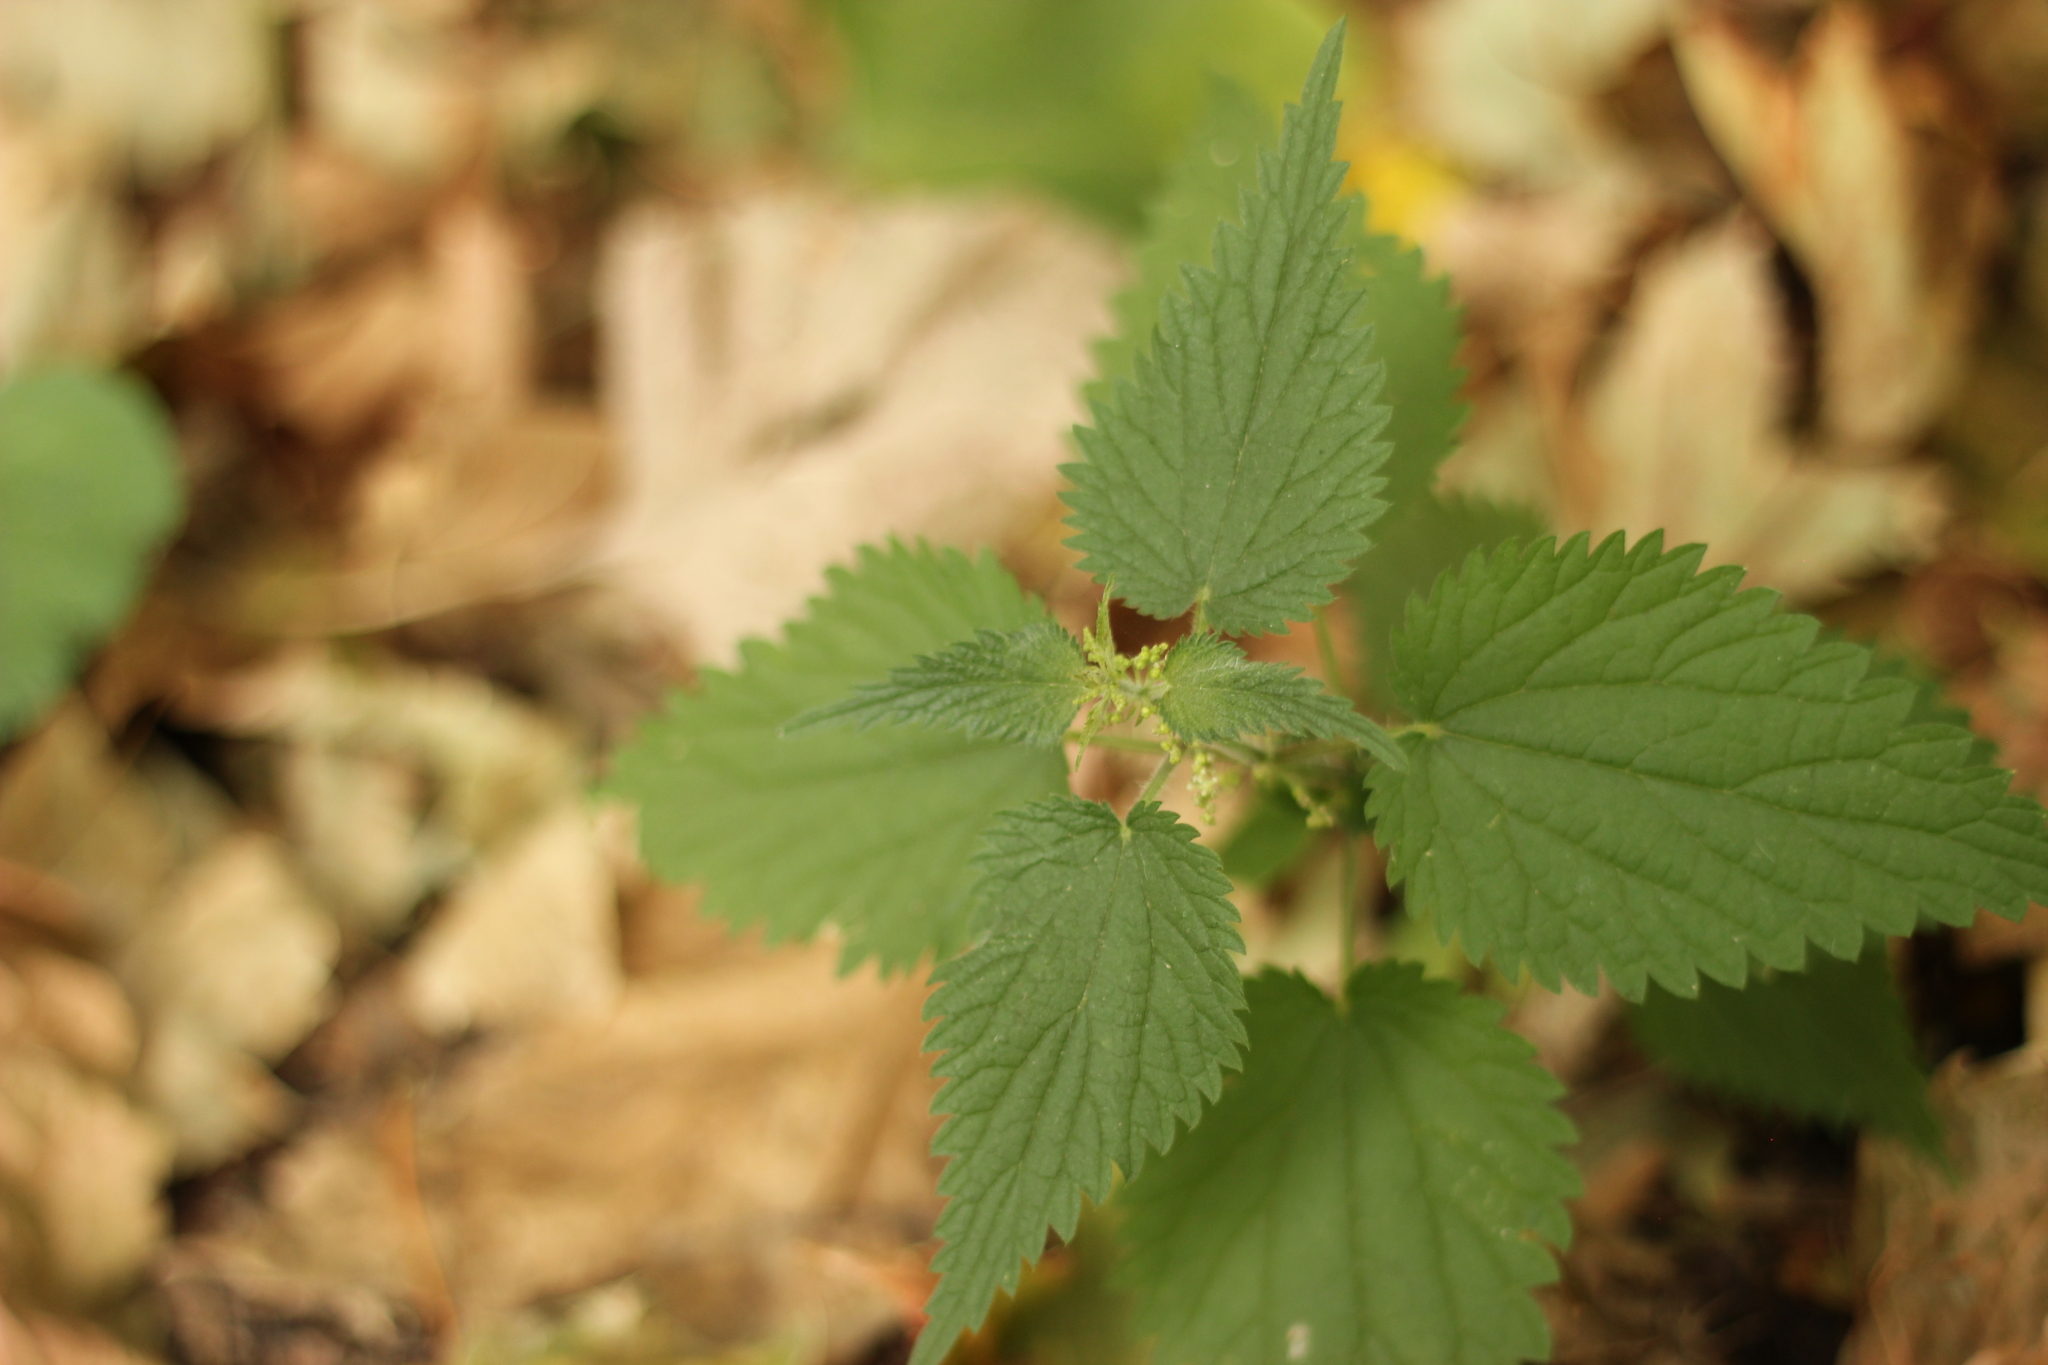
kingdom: Plantae
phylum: Tracheophyta
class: Magnoliopsida
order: Rosales
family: Urticaceae
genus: Urtica
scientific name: Urtica dioica
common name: Common nettle
